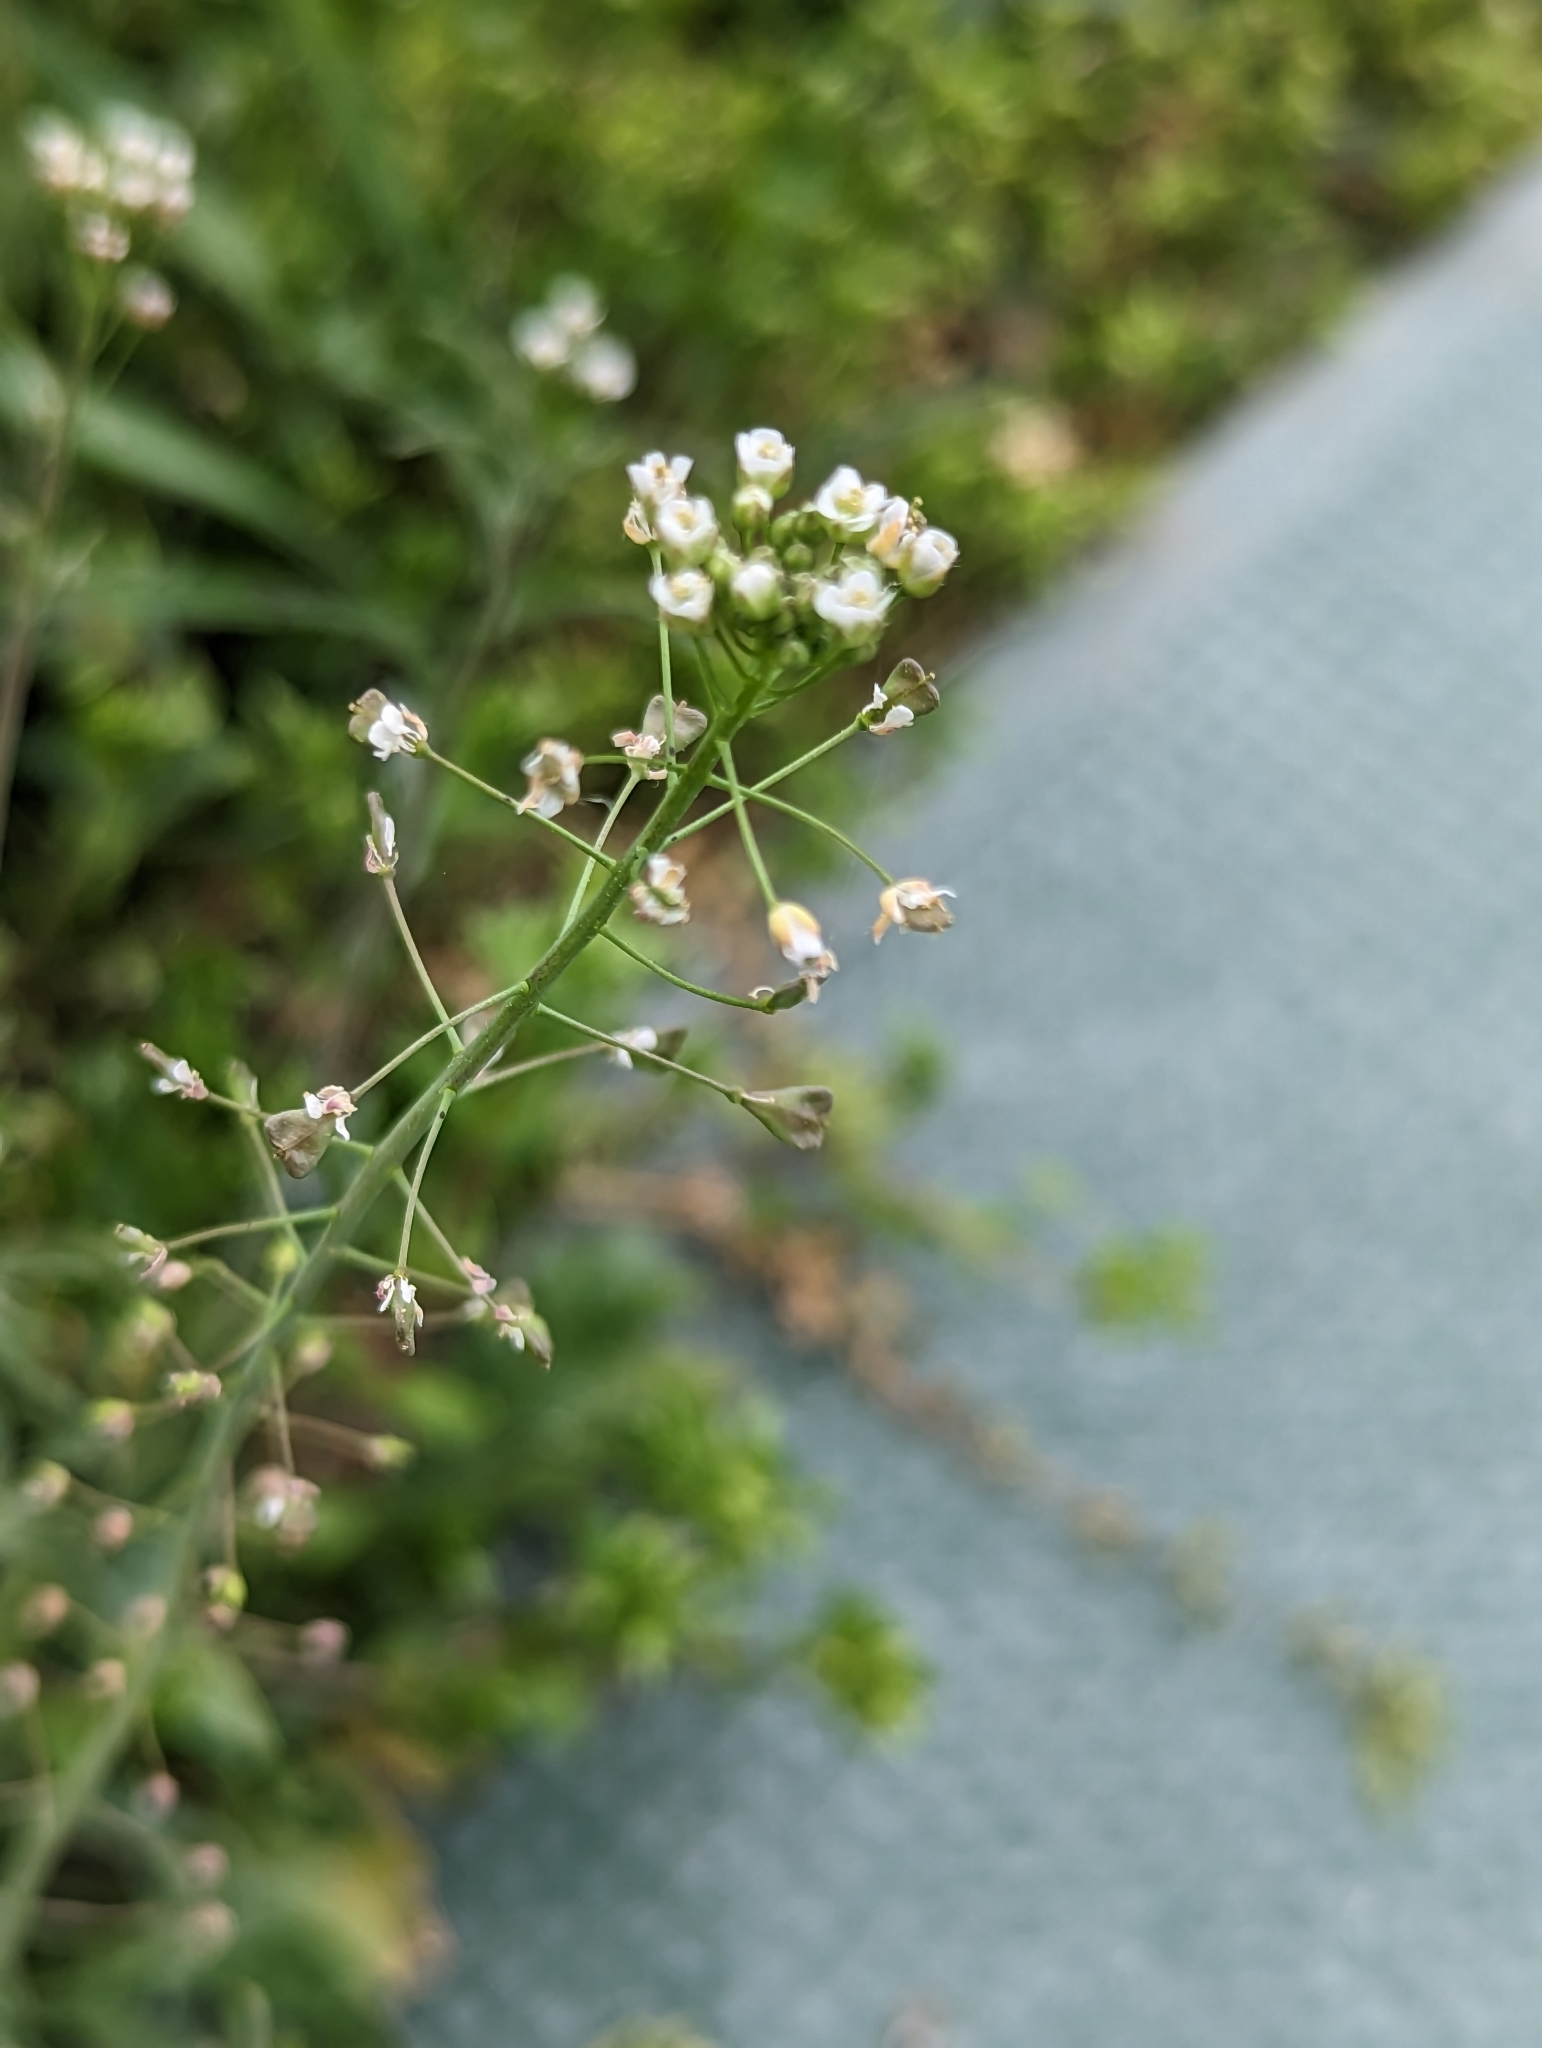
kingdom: Plantae
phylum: Tracheophyta
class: Magnoliopsida
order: Brassicales
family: Brassicaceae
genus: Capsella
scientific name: Capsella bursa-pastoris
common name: Shepherd's purse
